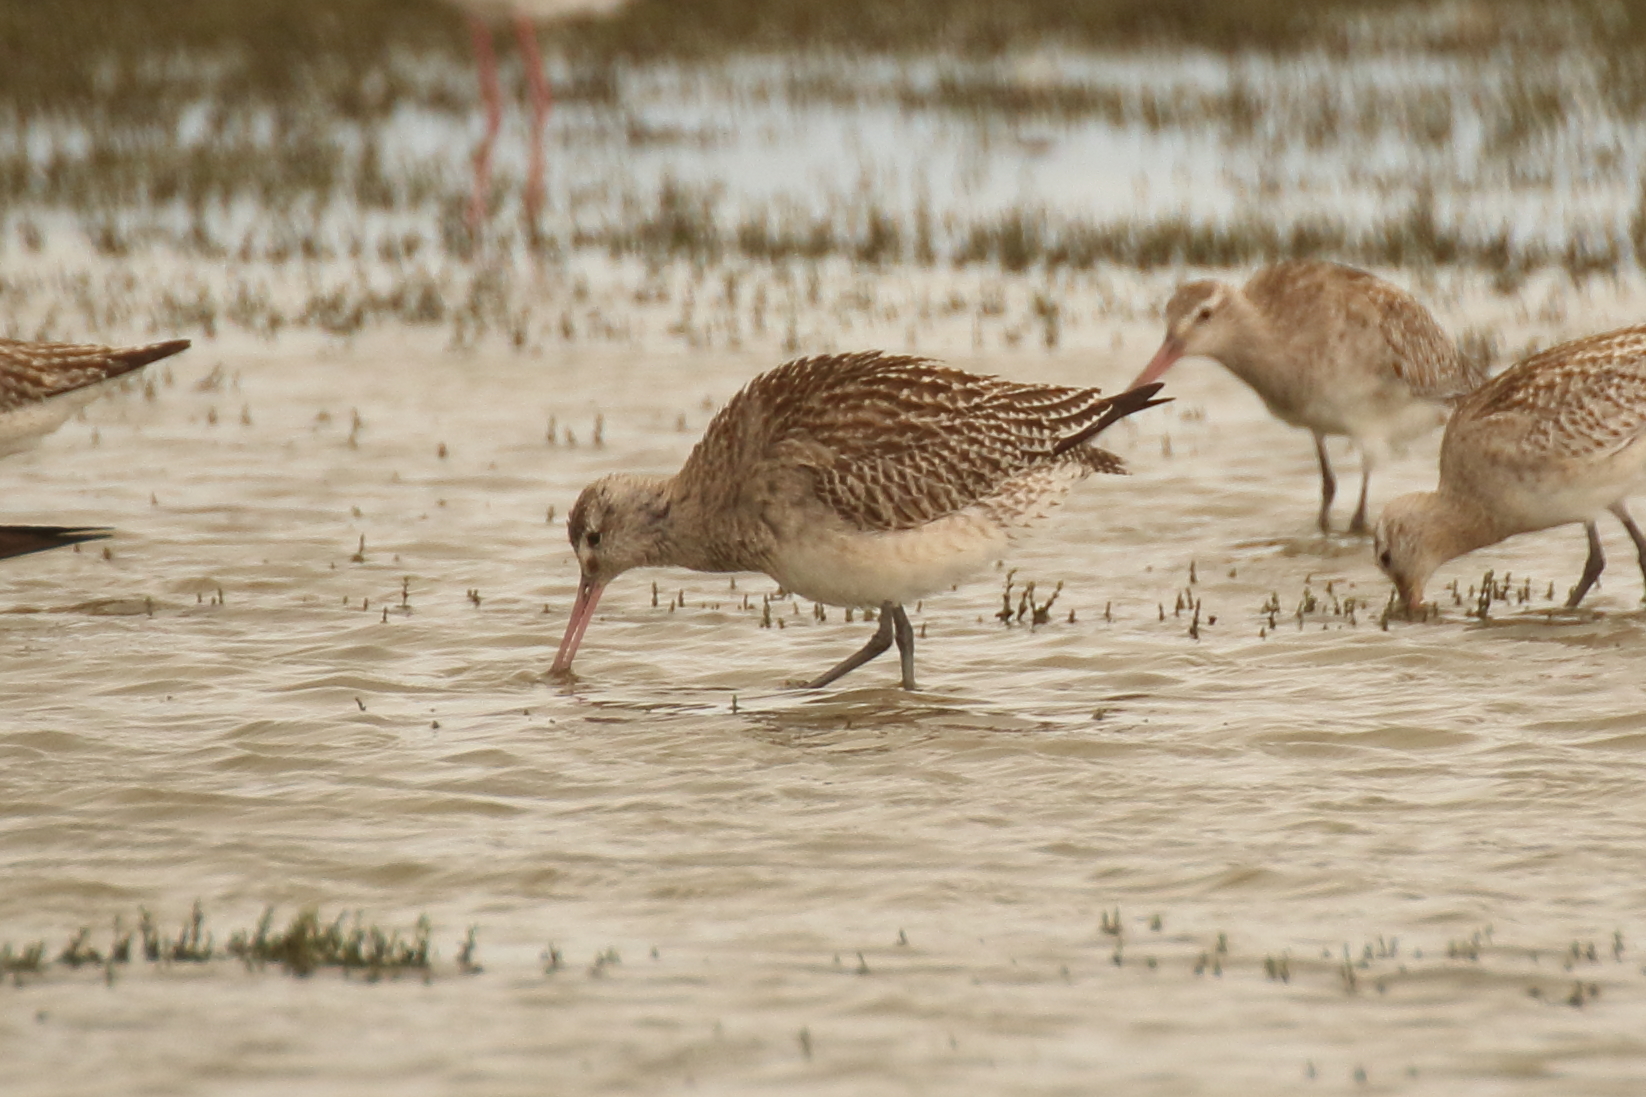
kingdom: Animalia
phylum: Chordata
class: Aves
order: Charadriiformes
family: Scolopacidae
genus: Limosa
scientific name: Limosa lapponica
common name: Bar-tailed godwit
